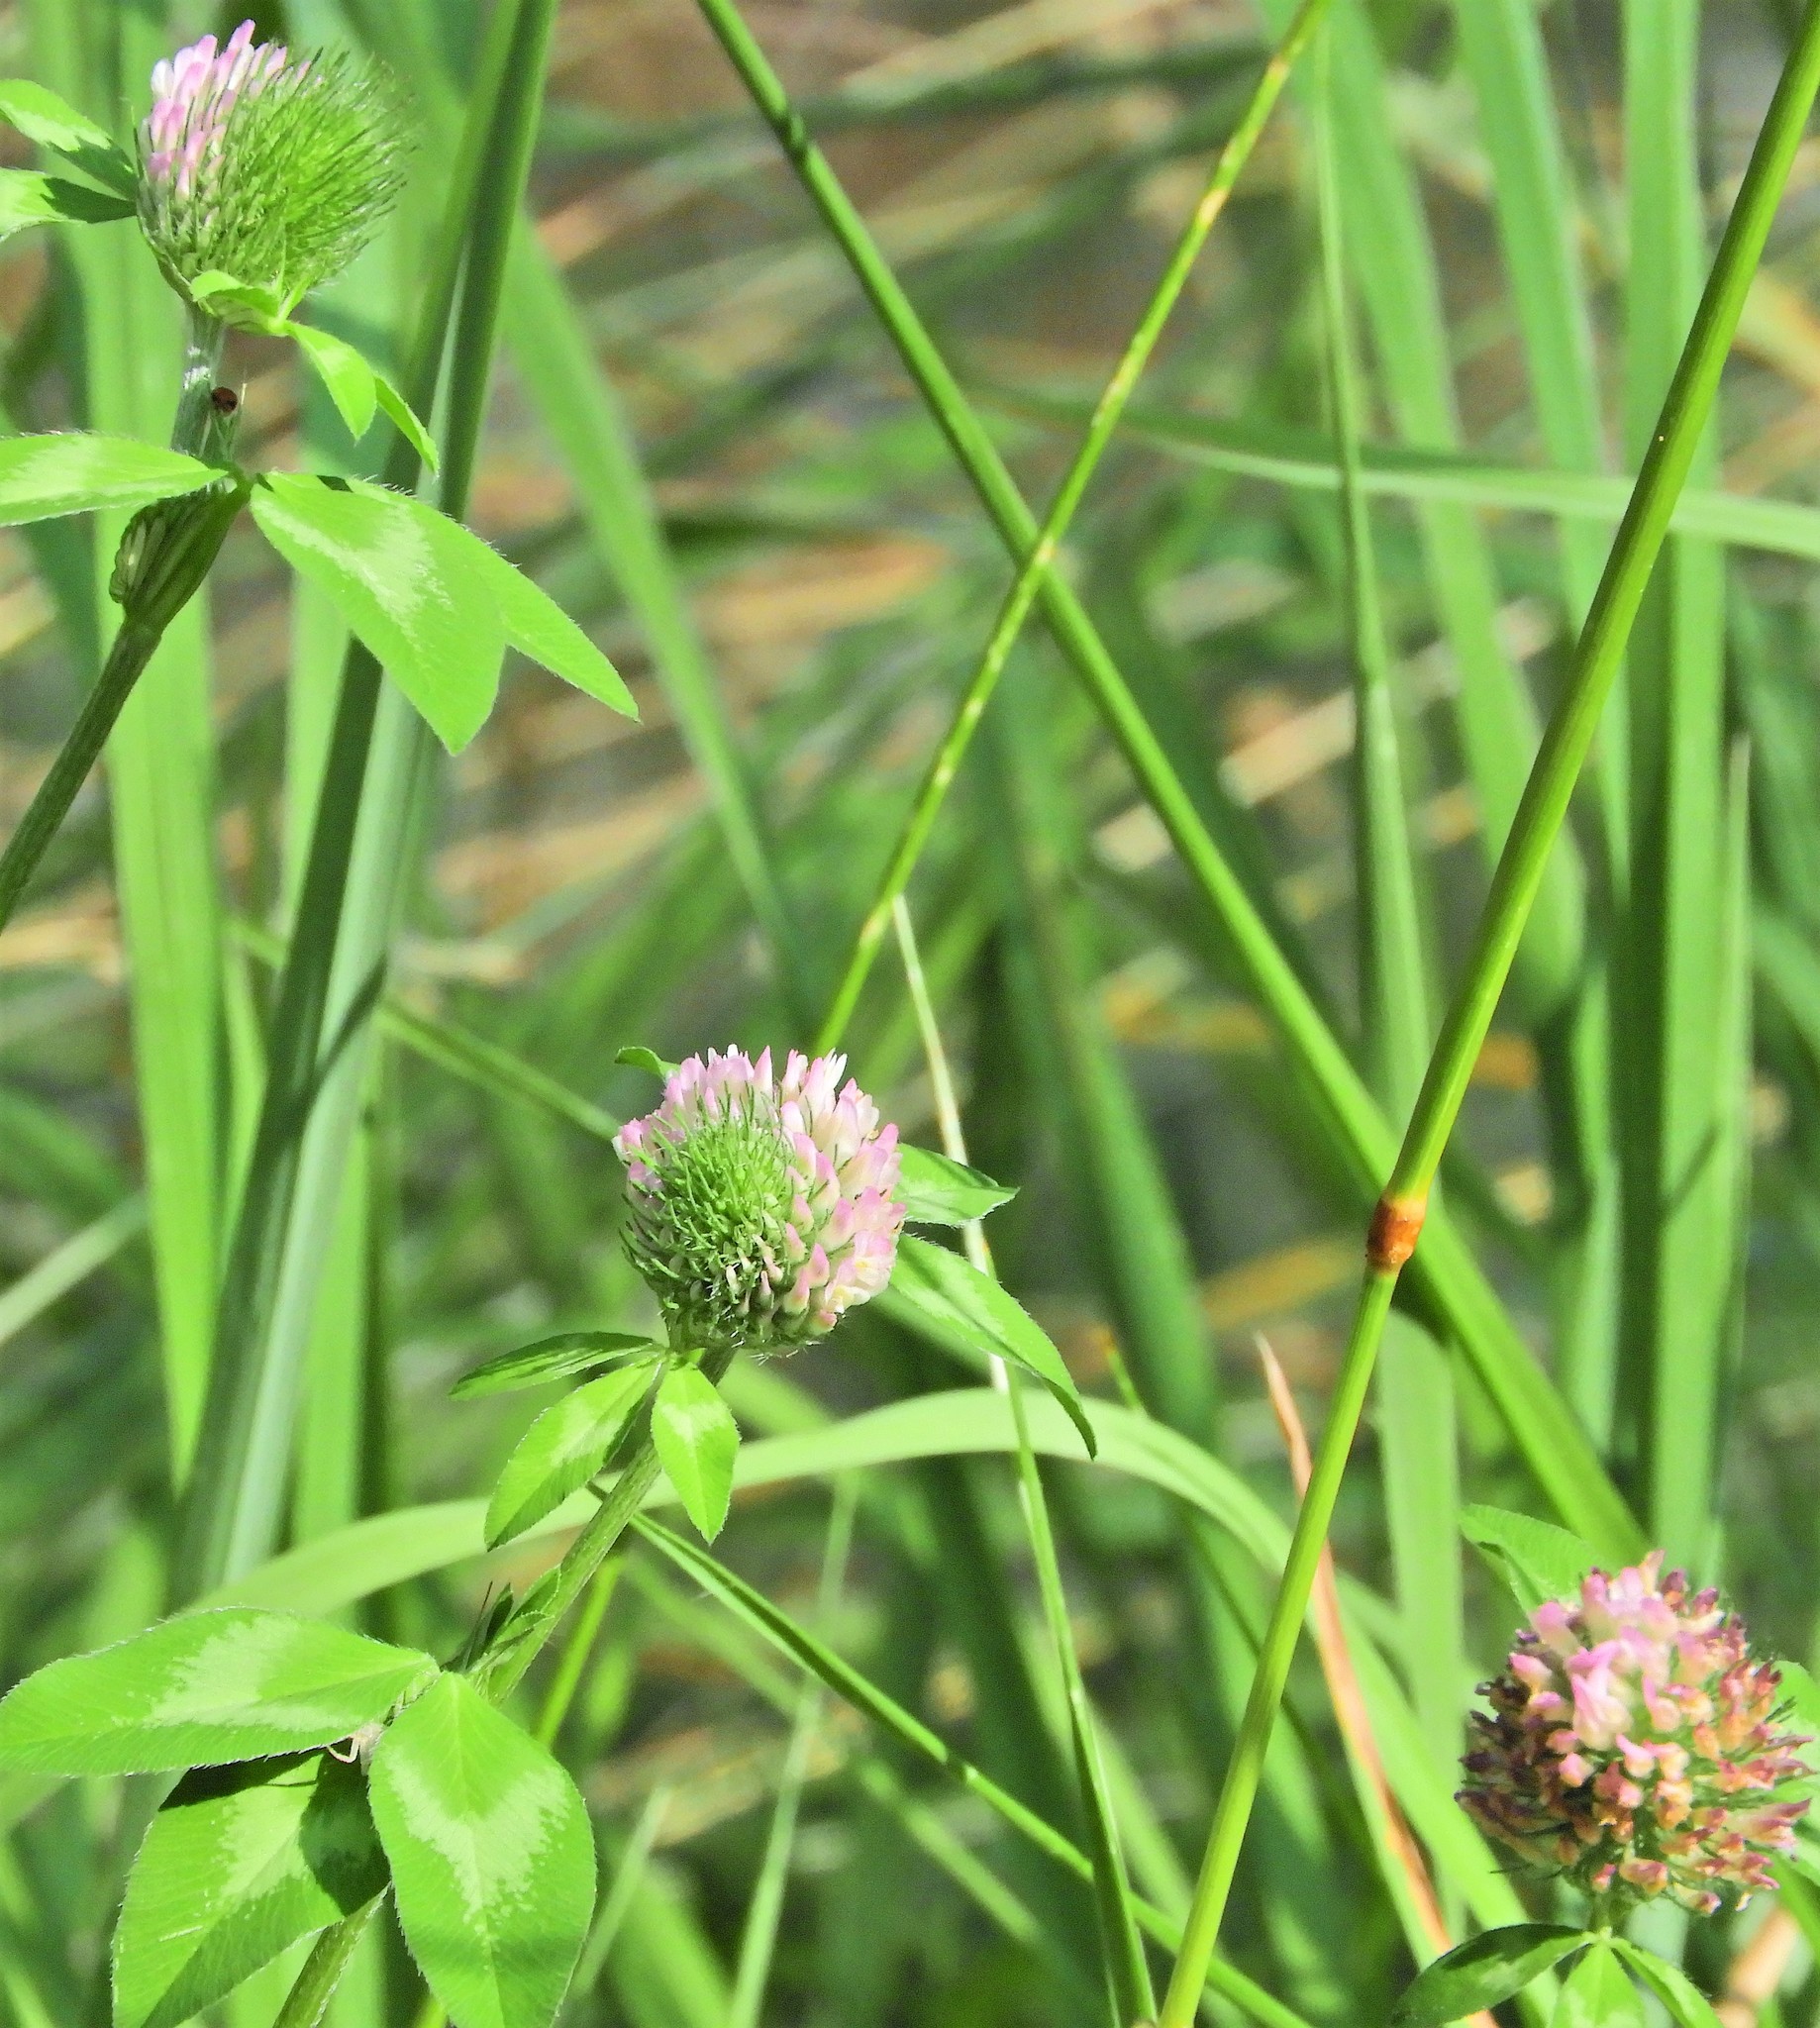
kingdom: Plantae
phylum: Tracheophyta
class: Magnoliopsida
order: Fabales
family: Fabaceae
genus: Trifolium
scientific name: Trifolium pratense
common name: Red clover
